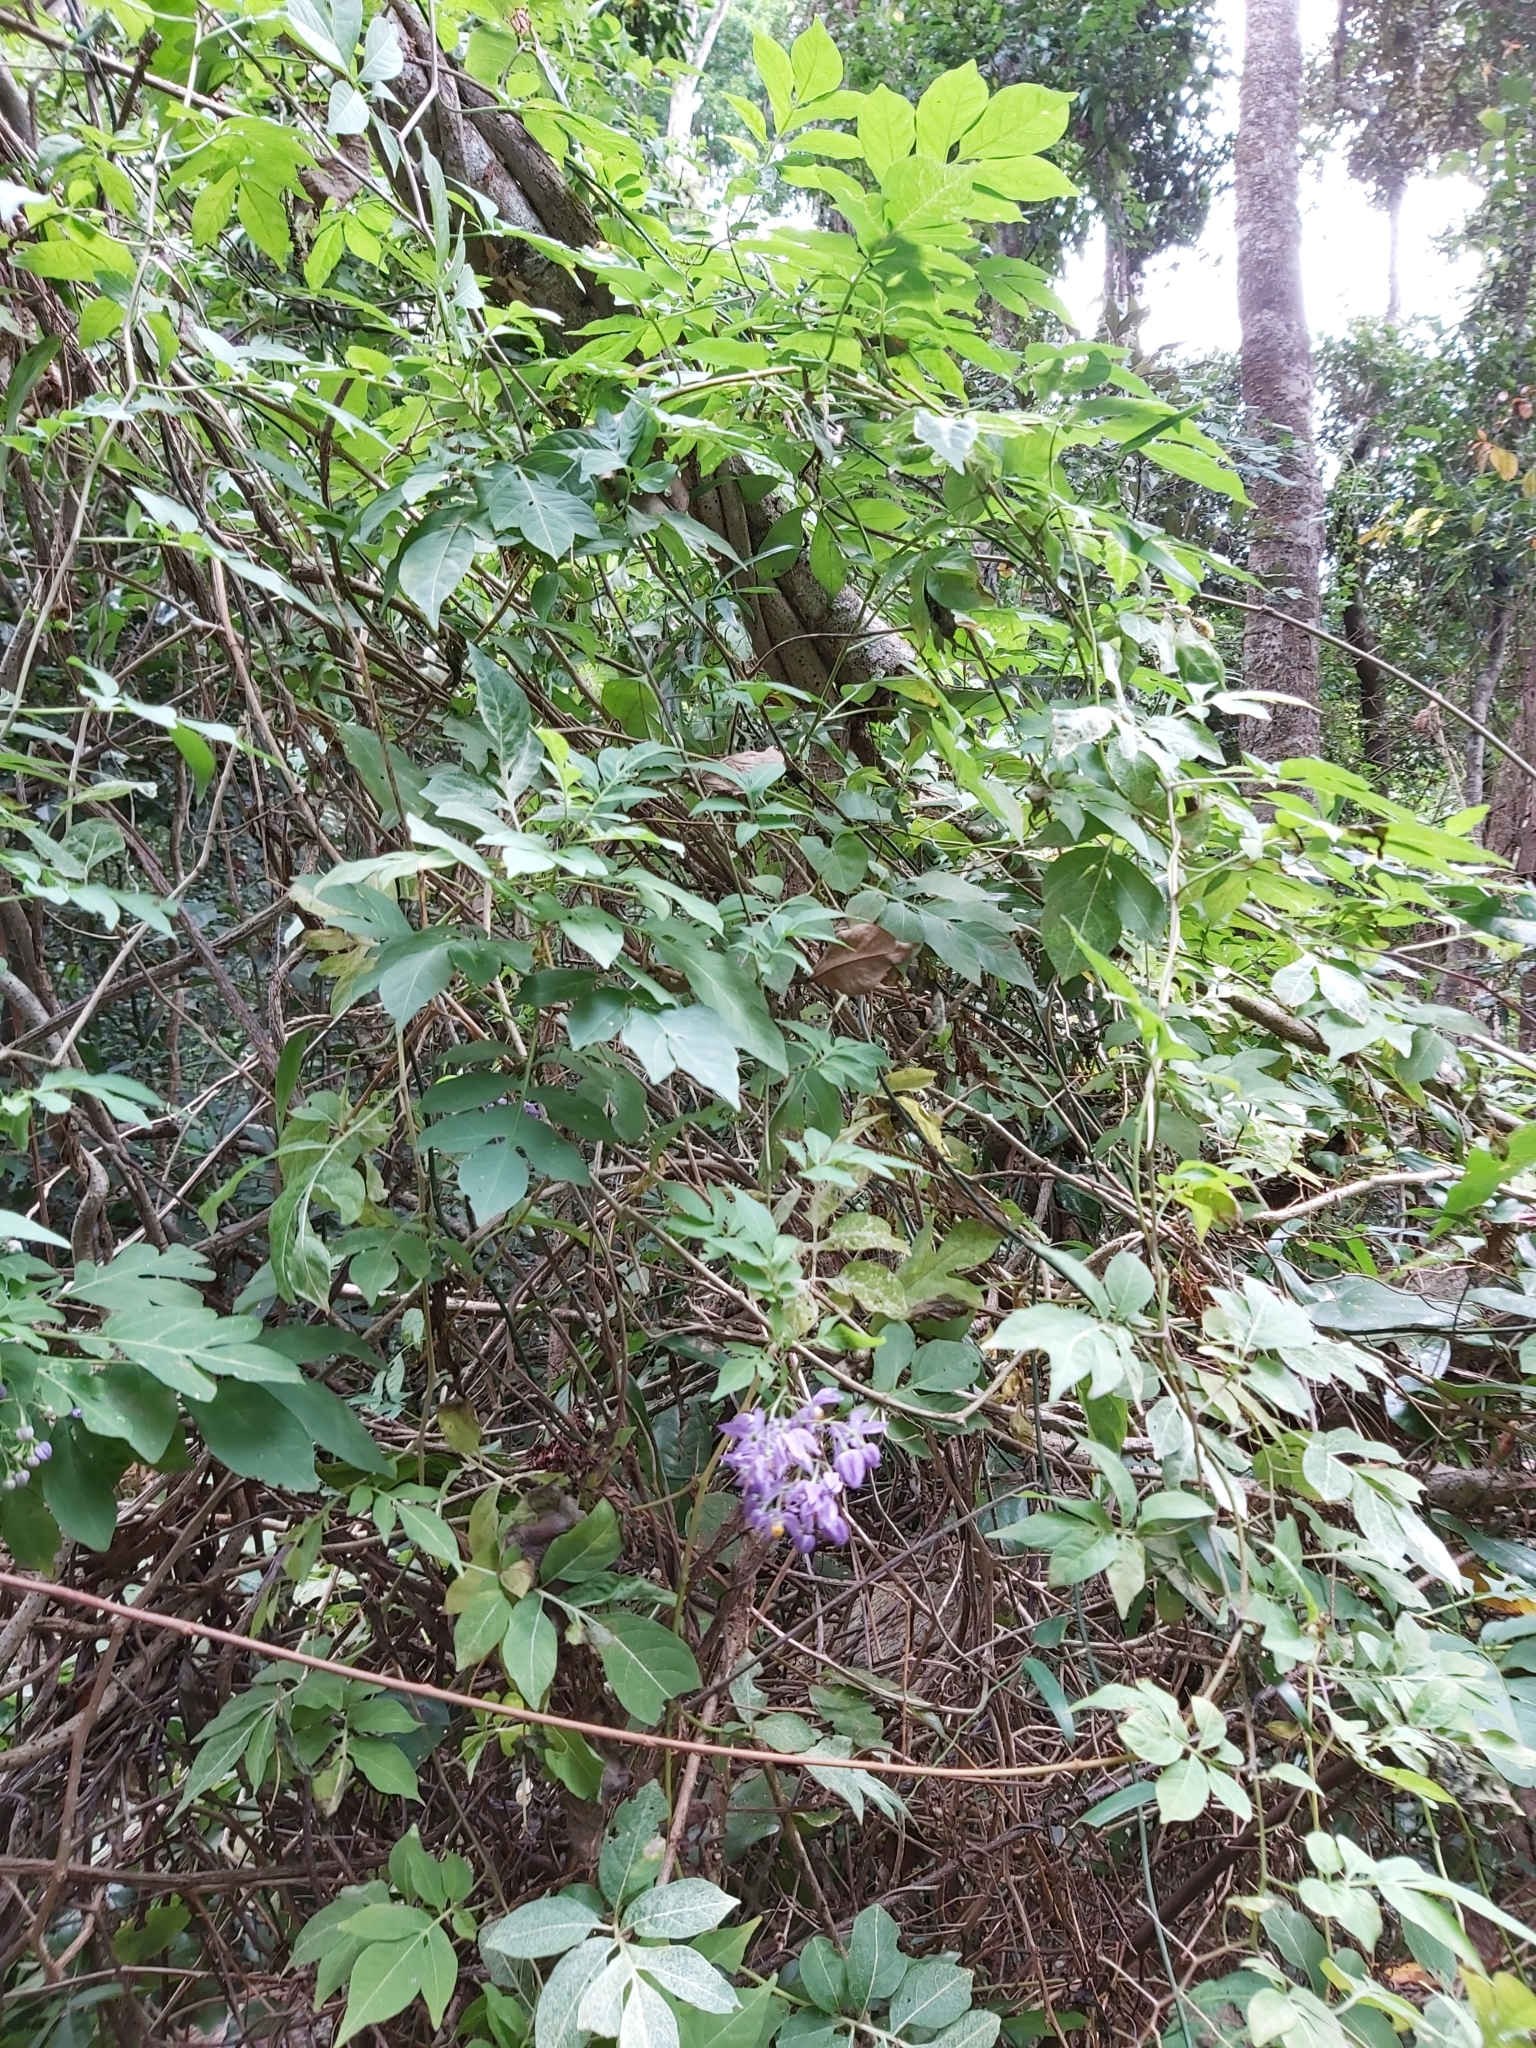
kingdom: Plantae
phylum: Tracheophyta
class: Magnoliopsida
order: Solanales
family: Solanaceae
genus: Solanum
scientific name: Solanum seaforthianum
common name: Brazilian nightshade
